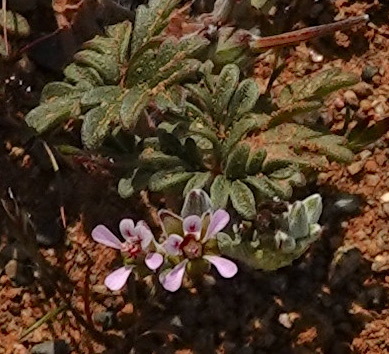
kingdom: Plantae
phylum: Tracheophyta
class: Magnoliopsida
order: Geraniales
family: Geraniaceae
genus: Pelargonium
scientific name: Pelargonium nanum
